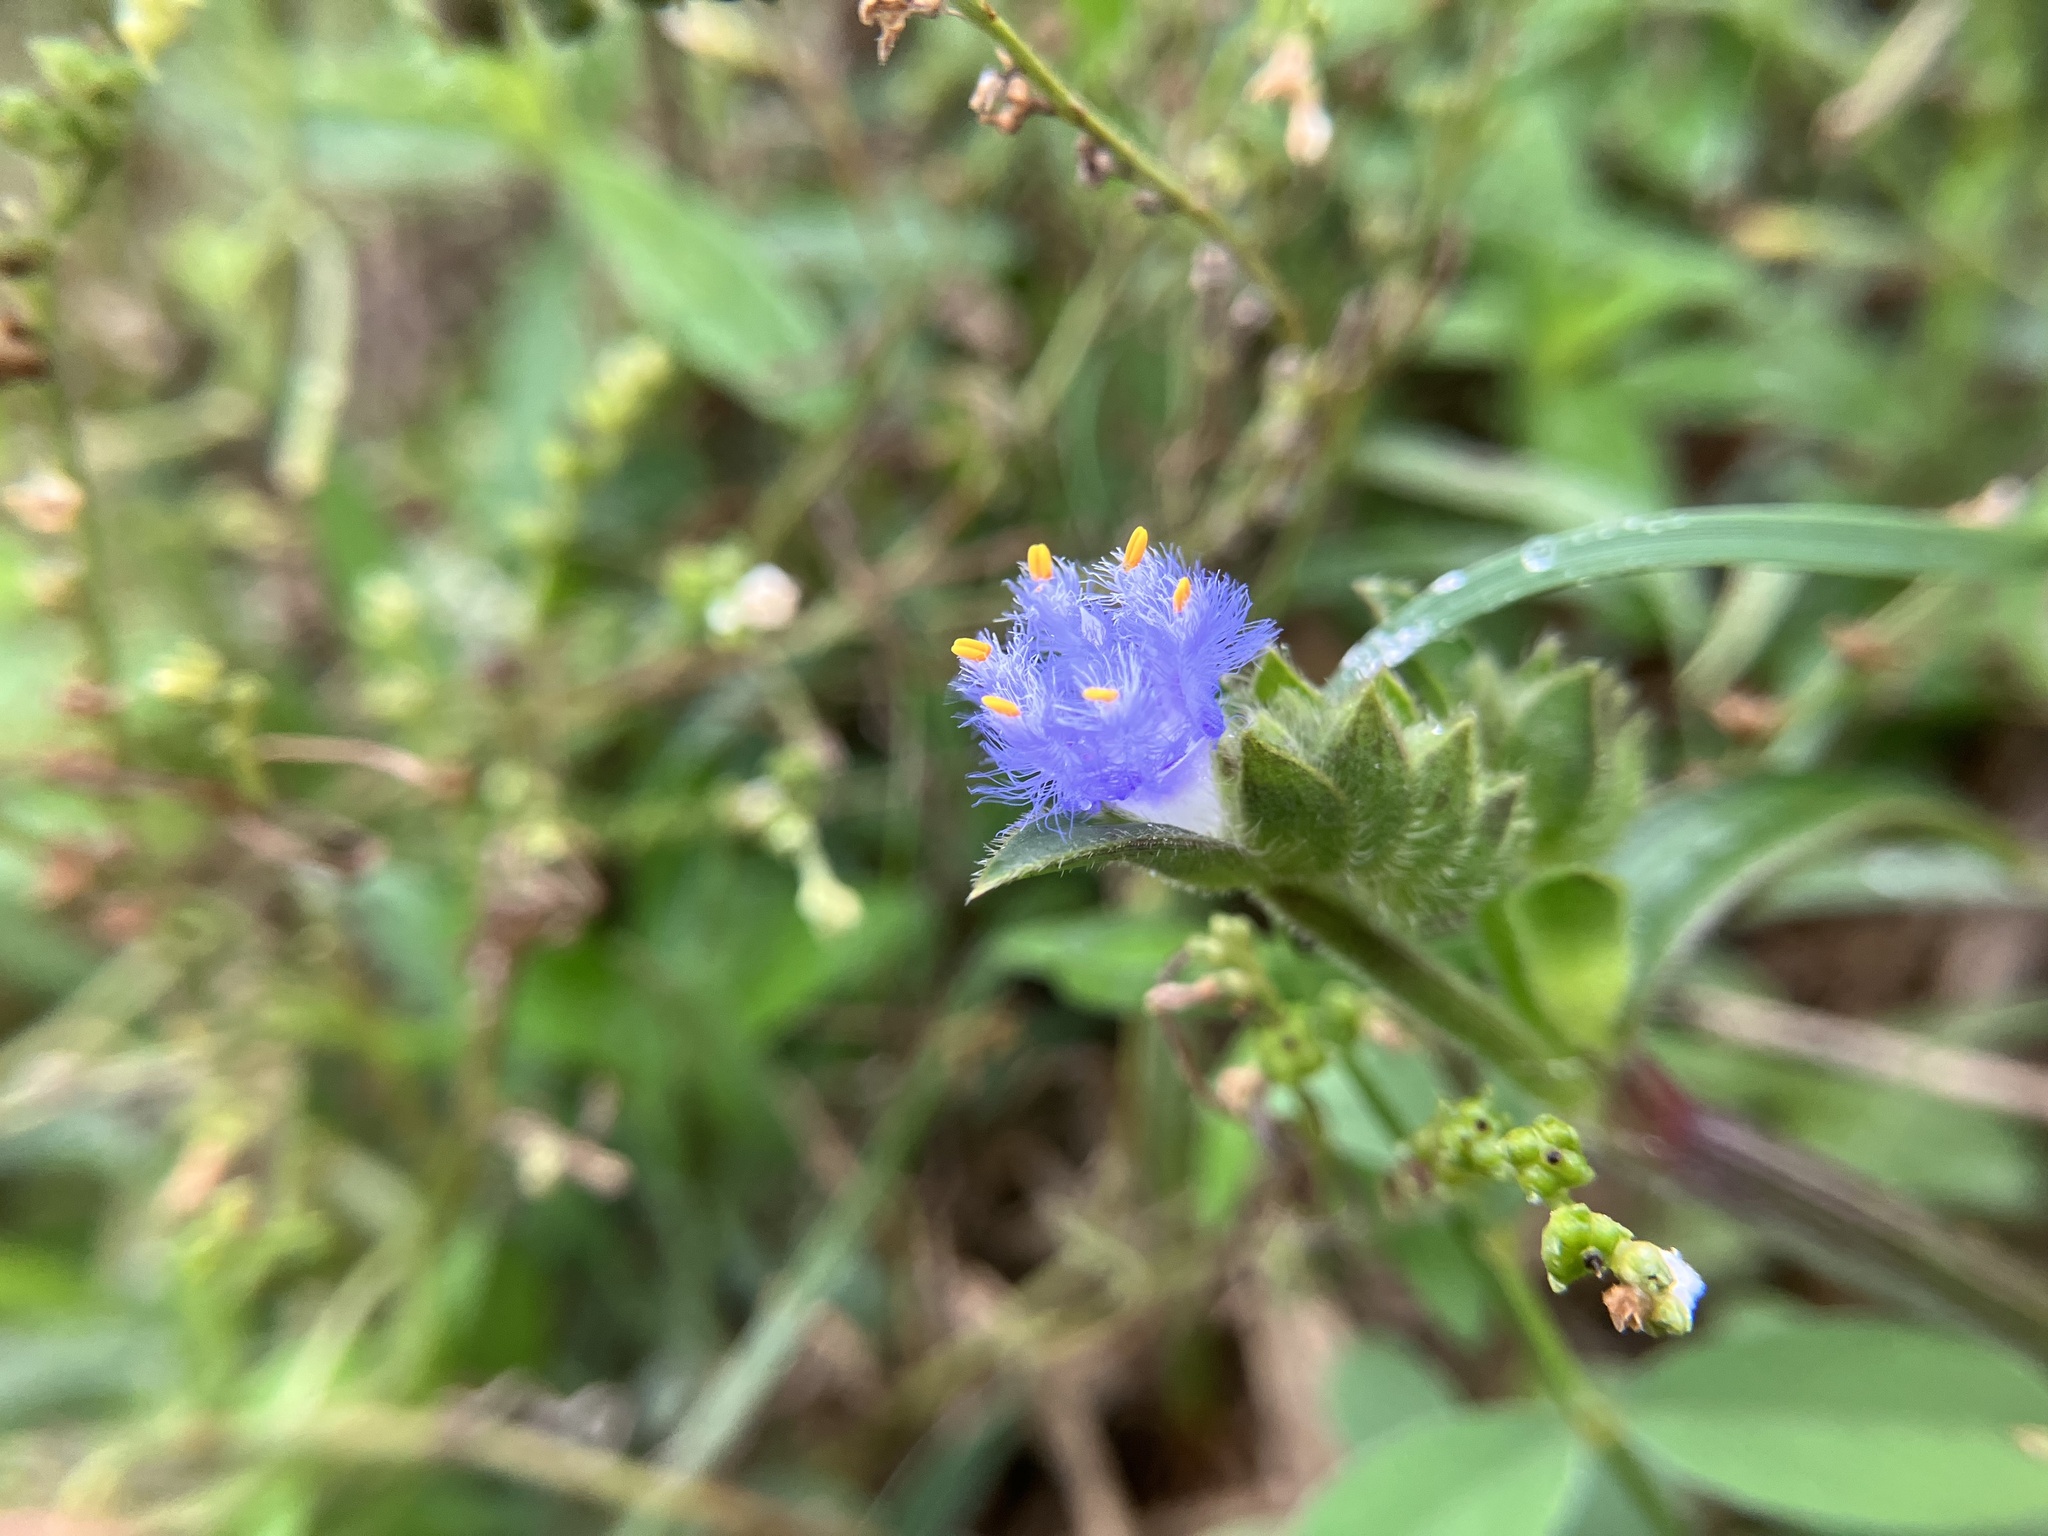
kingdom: Plantae
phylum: Tracheophyta
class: Liliopsida
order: Commelinales
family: Commelinaceae
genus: Cyanotis
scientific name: Cyanotis adscendens
